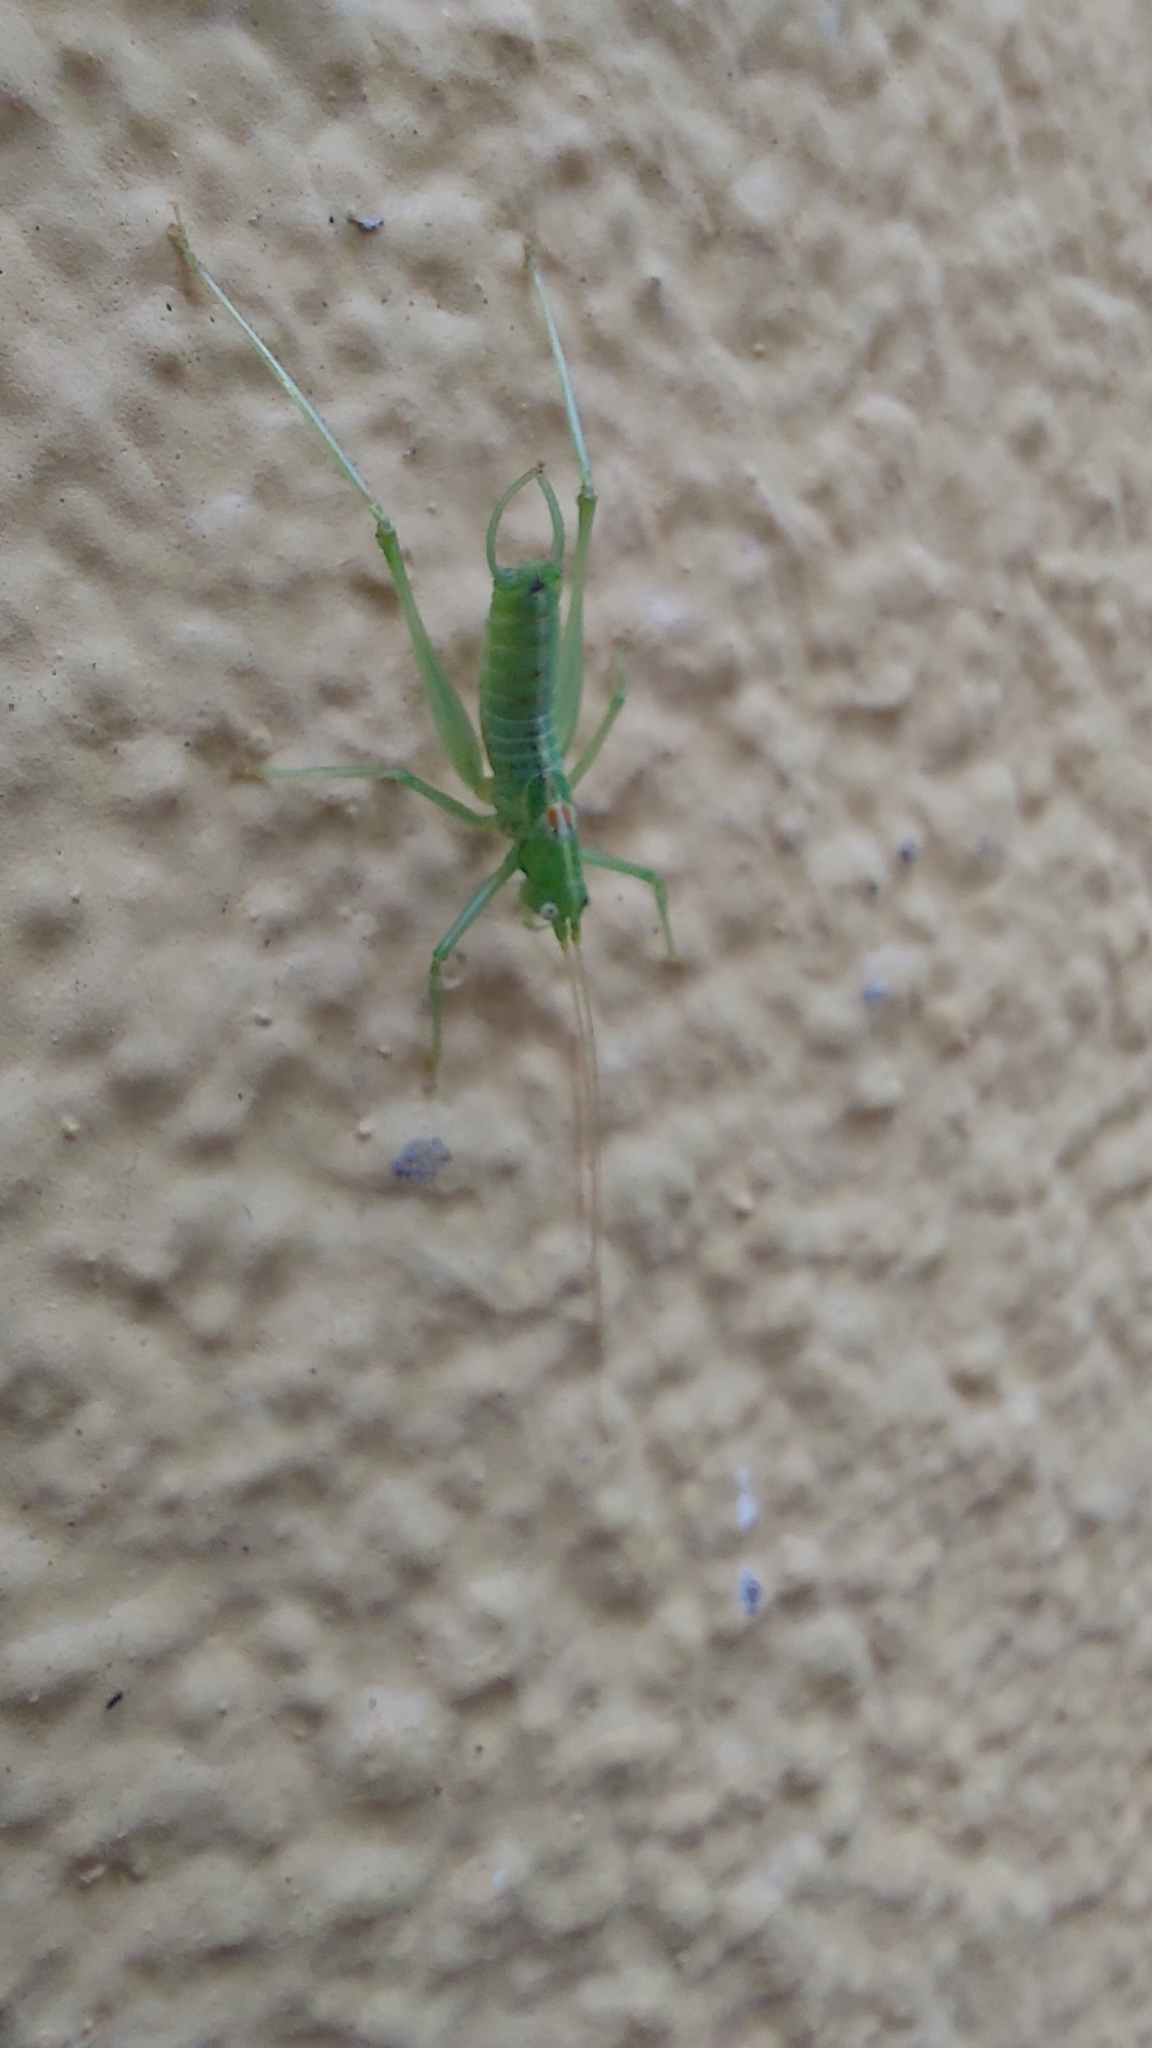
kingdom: Animalia
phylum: Arthropoda
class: Insecta
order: Orthoptera
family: Tettigoniidae
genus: Meconema
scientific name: Meconema meridionale
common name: Southern oak bush-cricket
